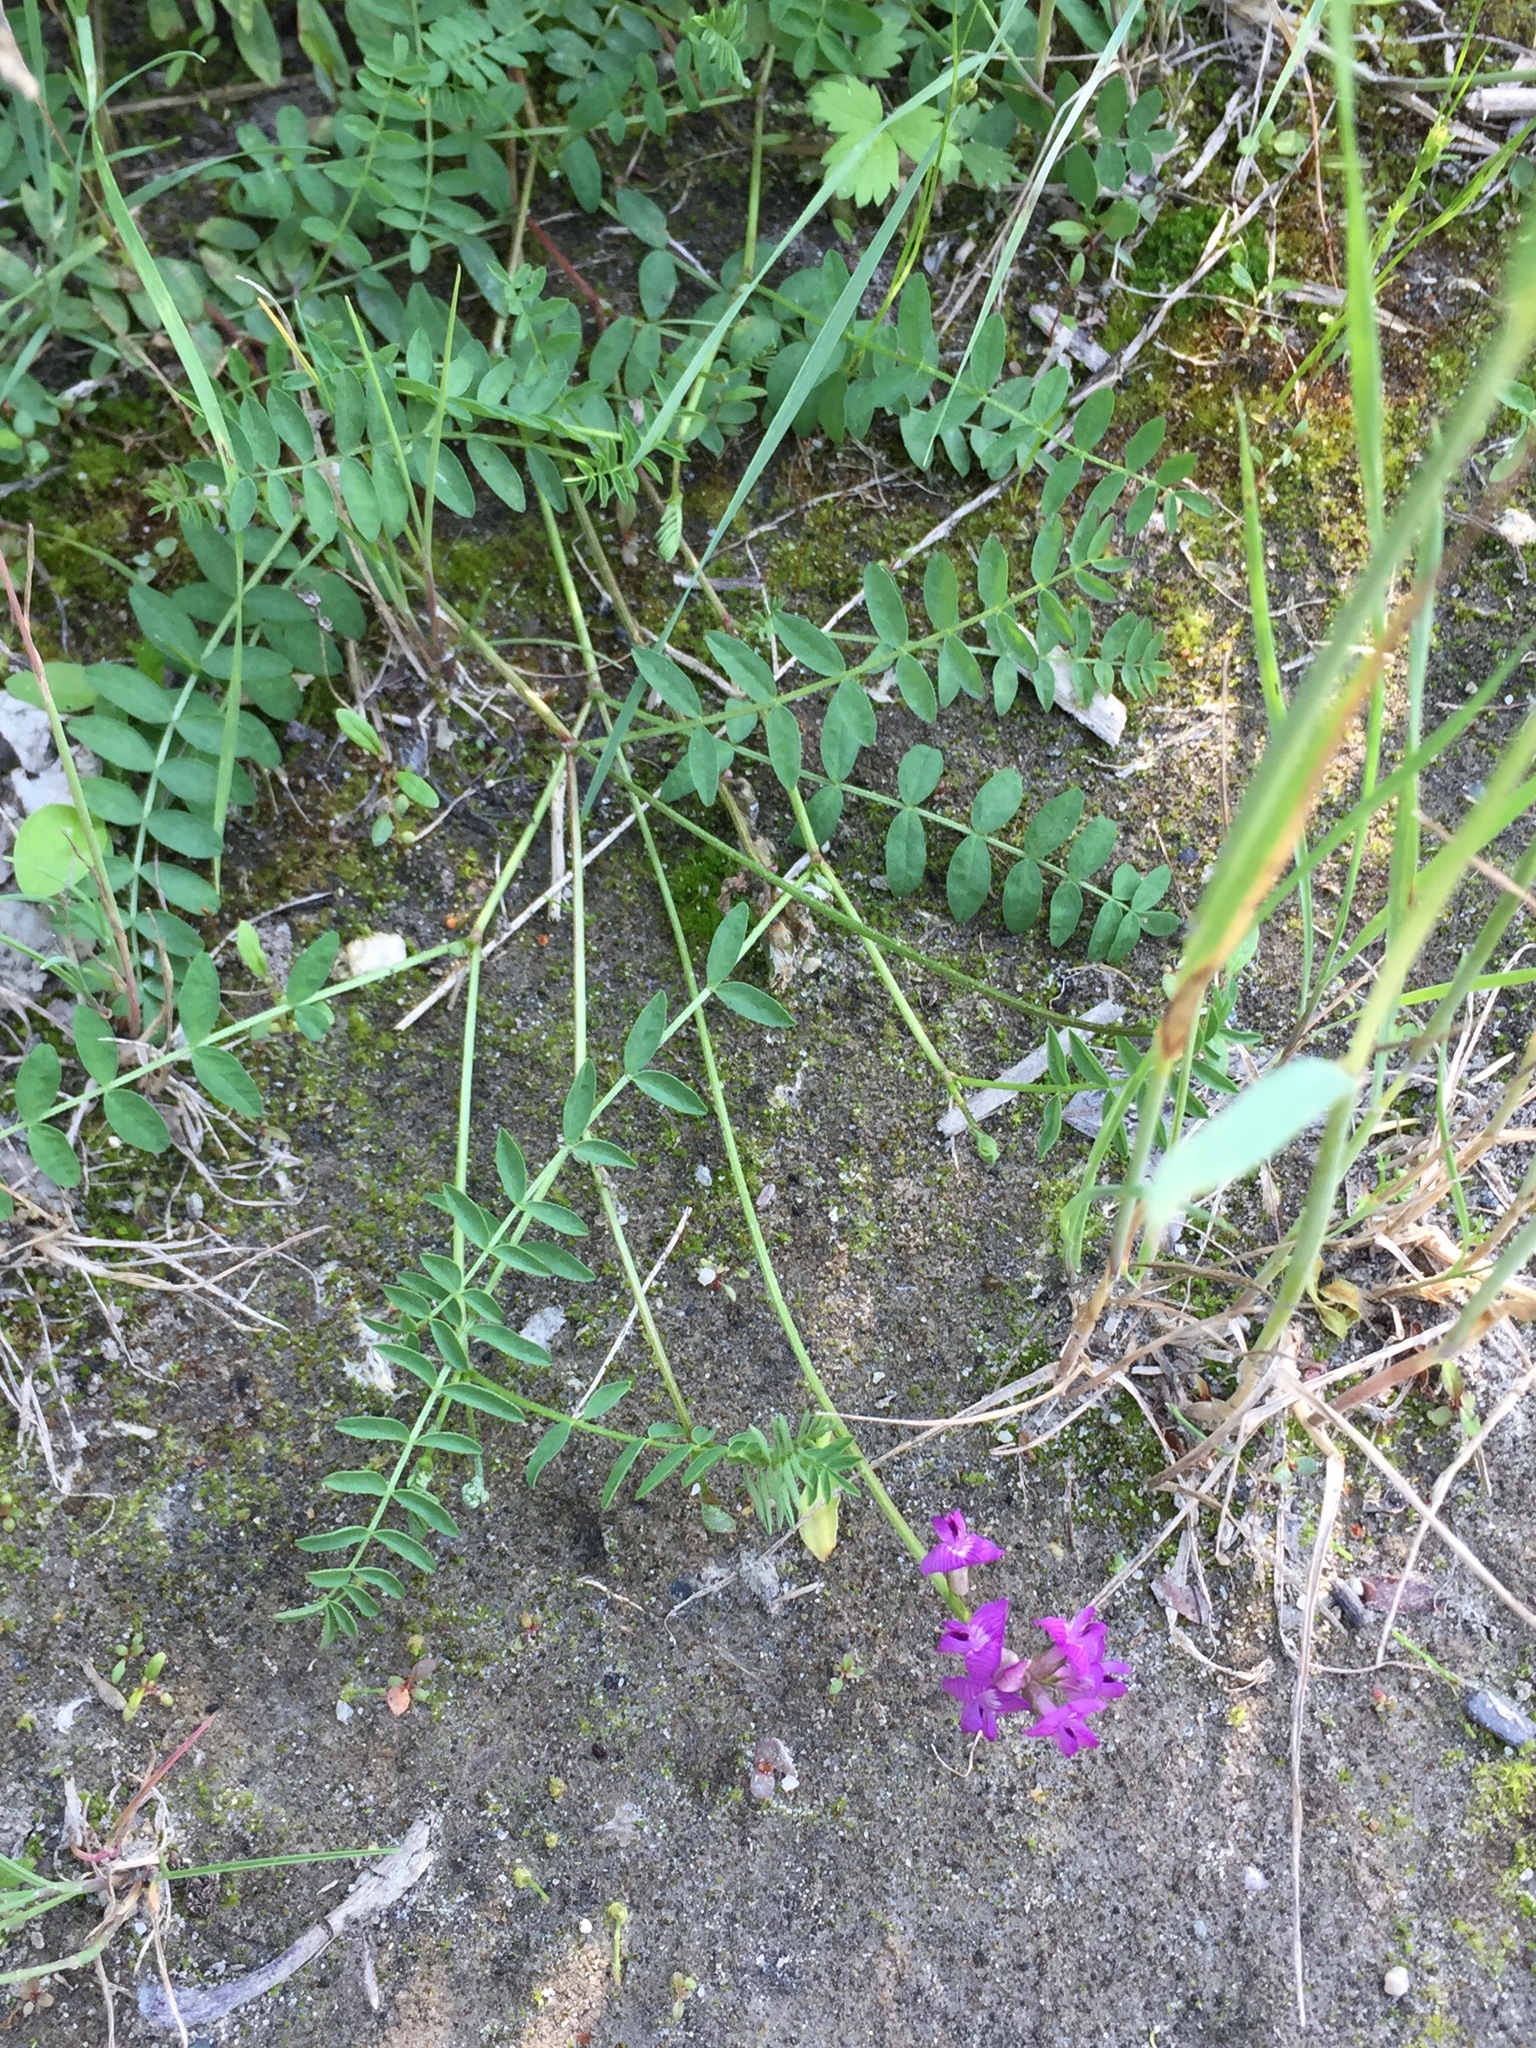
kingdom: Plantae
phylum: Tracheophyta
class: Magnoliopsida
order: Fabales
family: Fabaceae
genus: Astragalus
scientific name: Astragalus bodinii
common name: Bodin's milk-vetch
